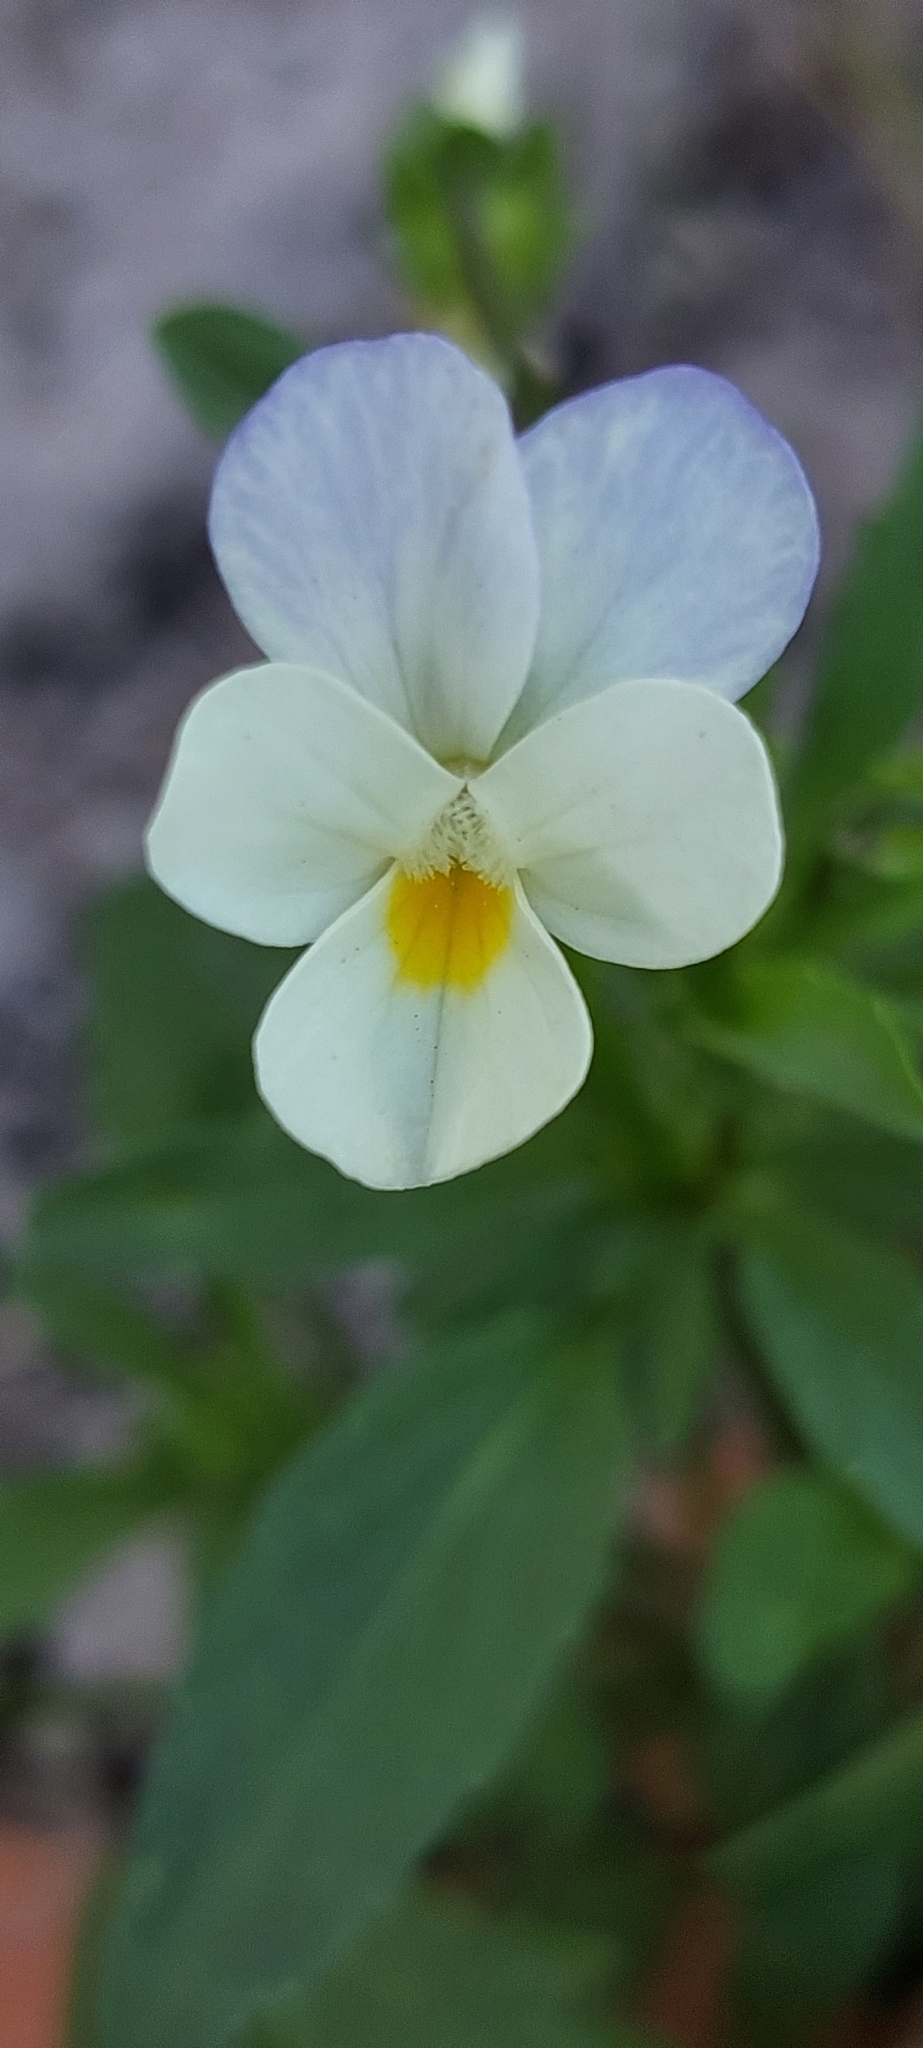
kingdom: Plantae
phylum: Tracheophyta
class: Magnoliopsida
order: Malpighiales
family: Violaceae
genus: Viola
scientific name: Viola tricolor
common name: Pansy
